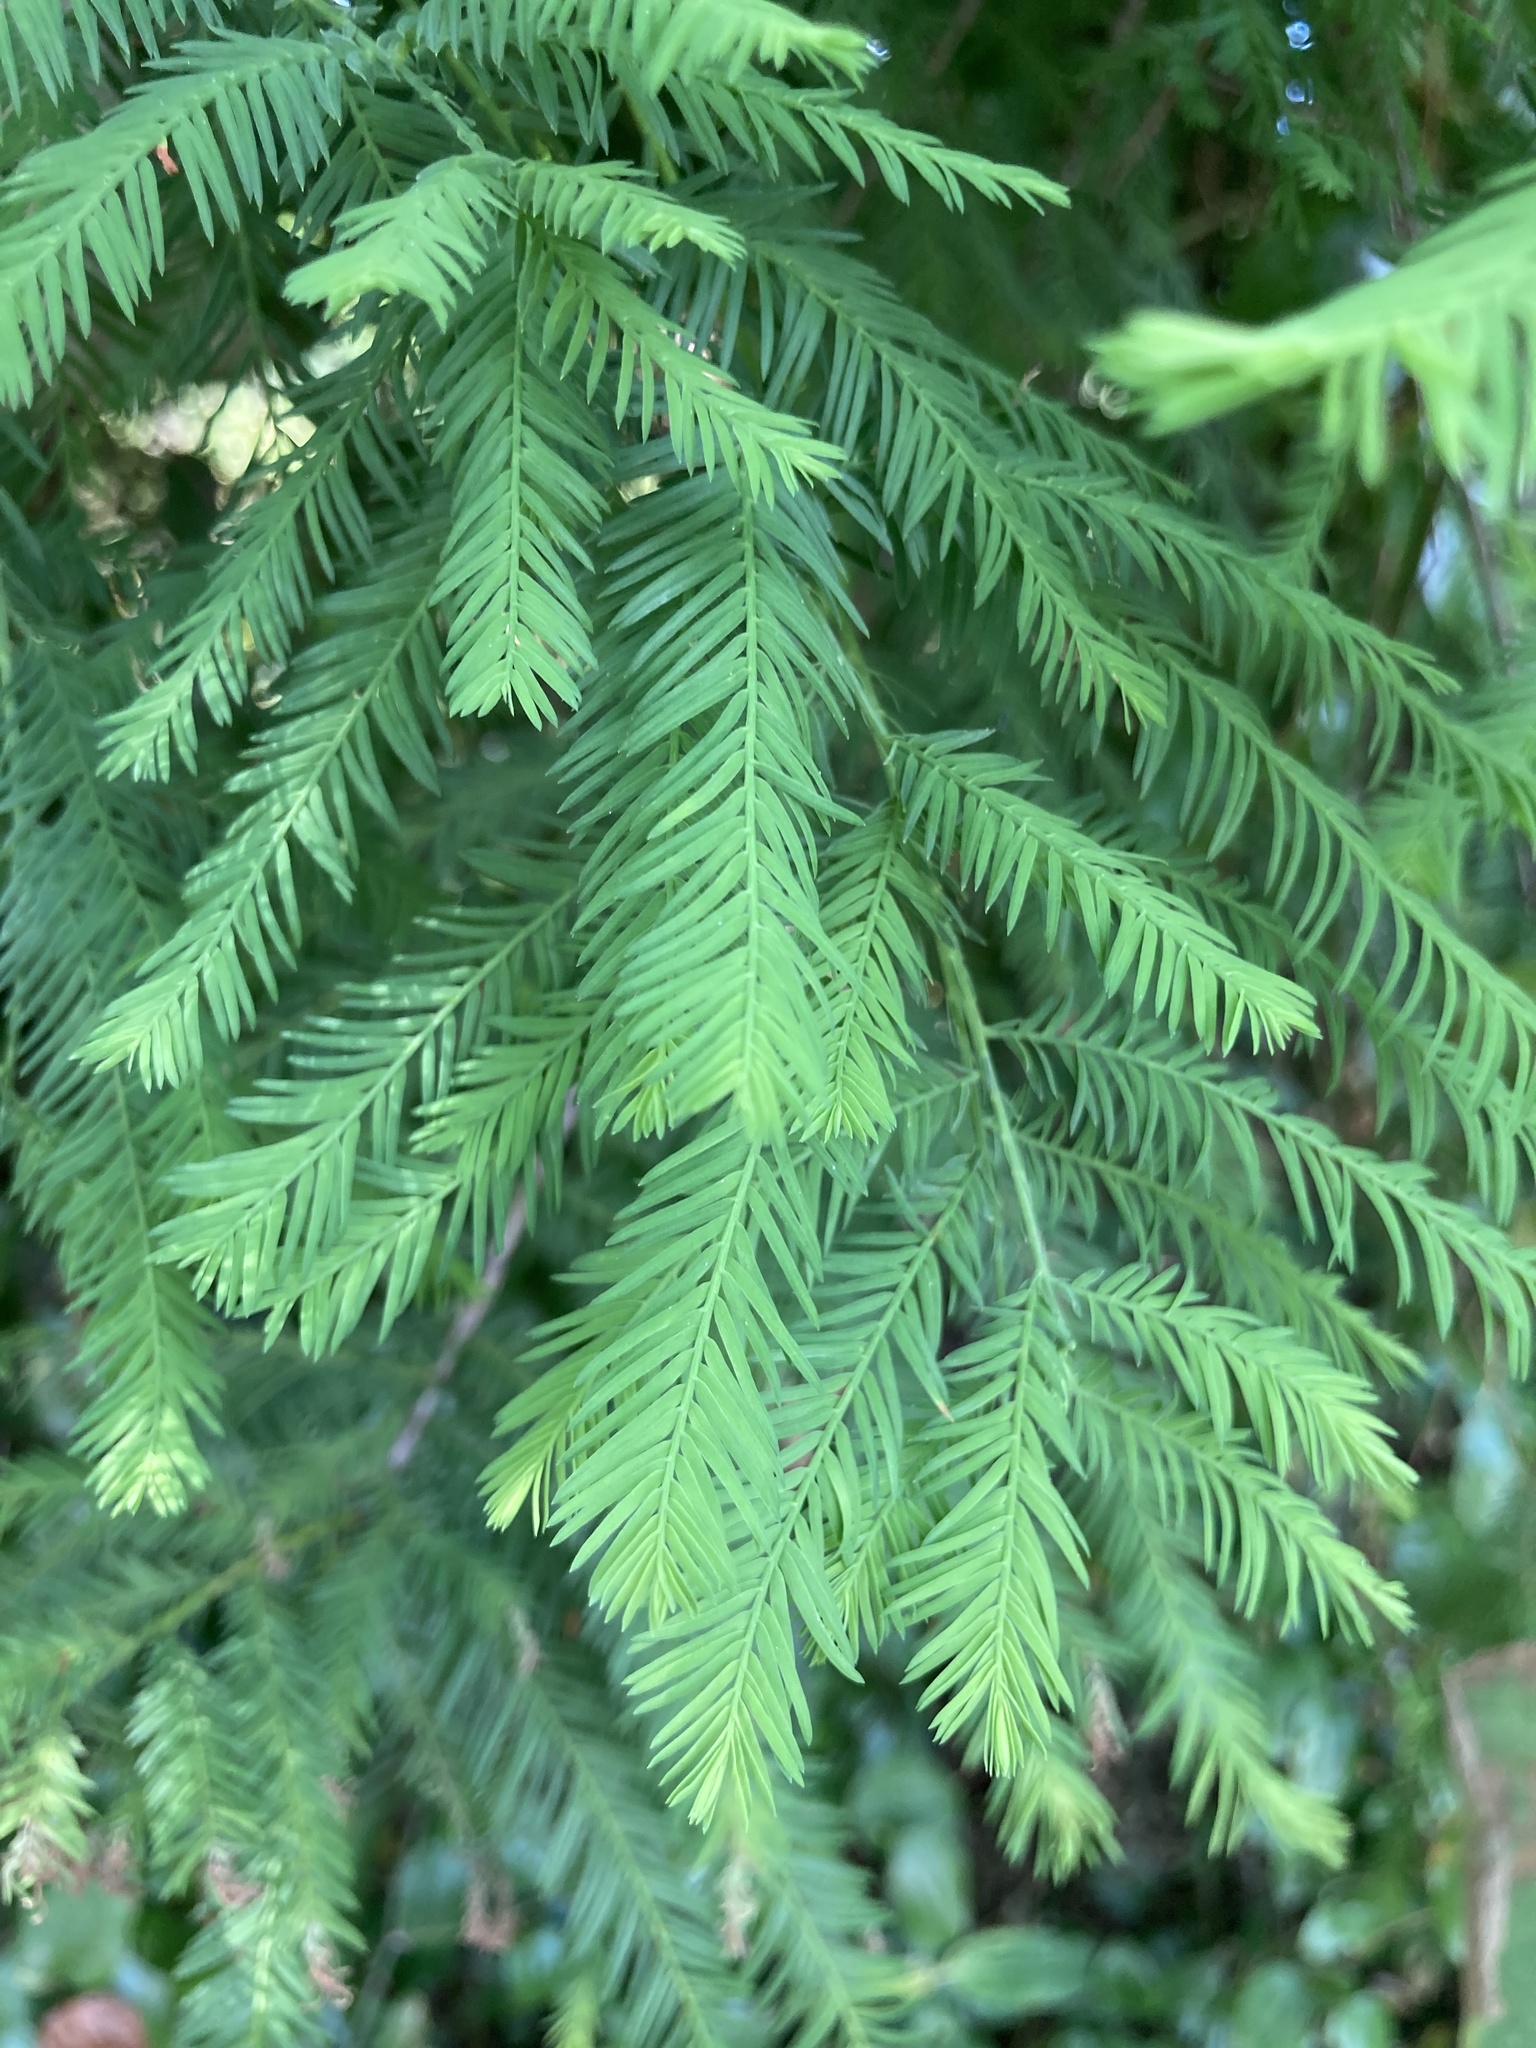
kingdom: Plantae
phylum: Tracheophyta
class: Pinopsida
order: Pinales
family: Cupressaceae
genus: Taxodium
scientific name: Taxodium distichum
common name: Bald cypress
